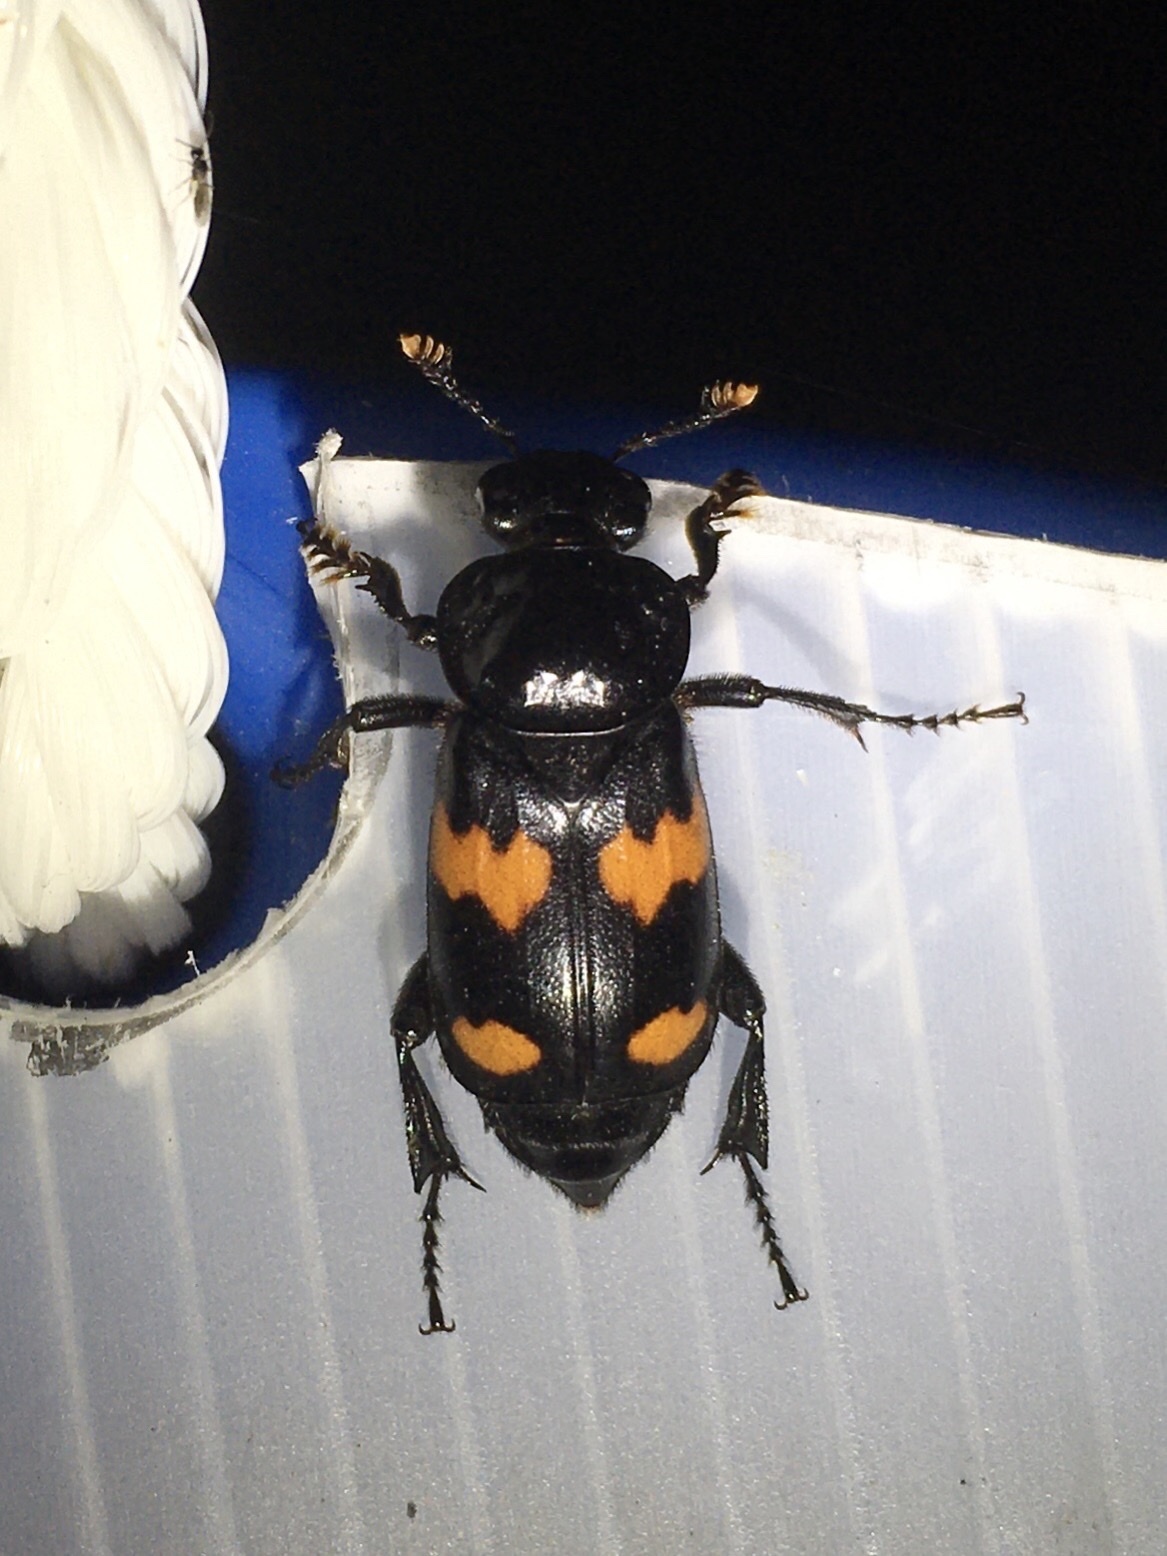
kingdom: Animalia
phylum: Arthropoda
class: Insecta
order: Coleoptera
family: Staphylinidae
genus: Nicrophorus
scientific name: Nicrophorus orbicollis
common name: Roundneck sexton beetle
